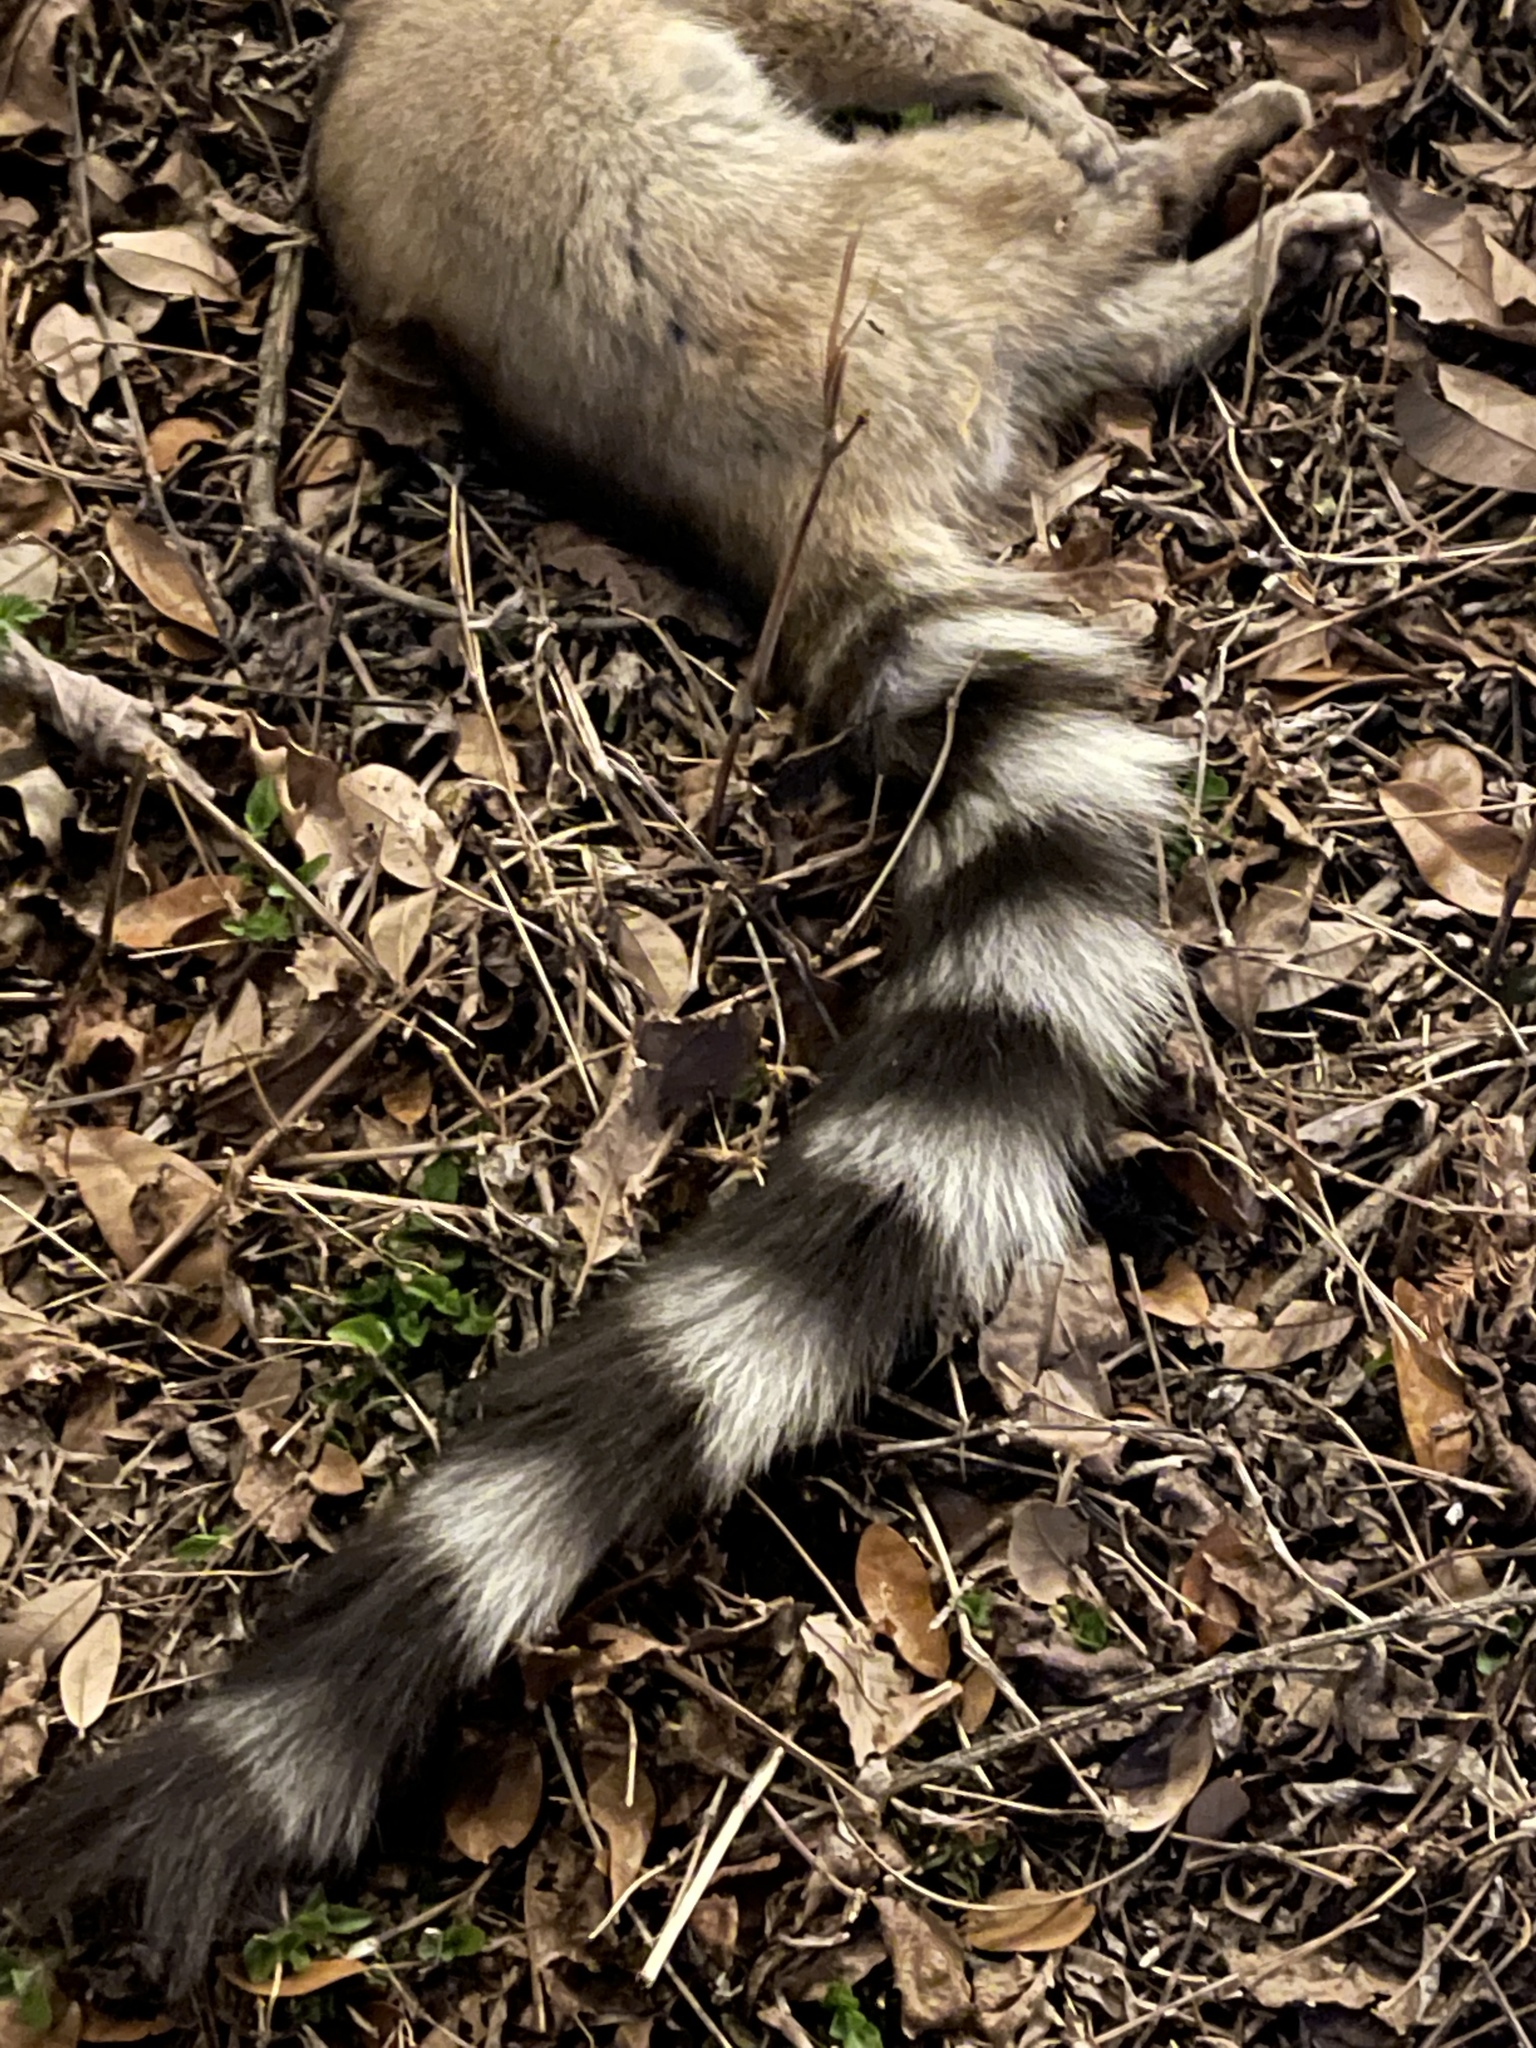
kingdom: Animalia
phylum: Chordata
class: Mammalia
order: Carnivora
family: Procyonidae
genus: Bassariscus
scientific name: Bassariscus astutus
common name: Ringtail
